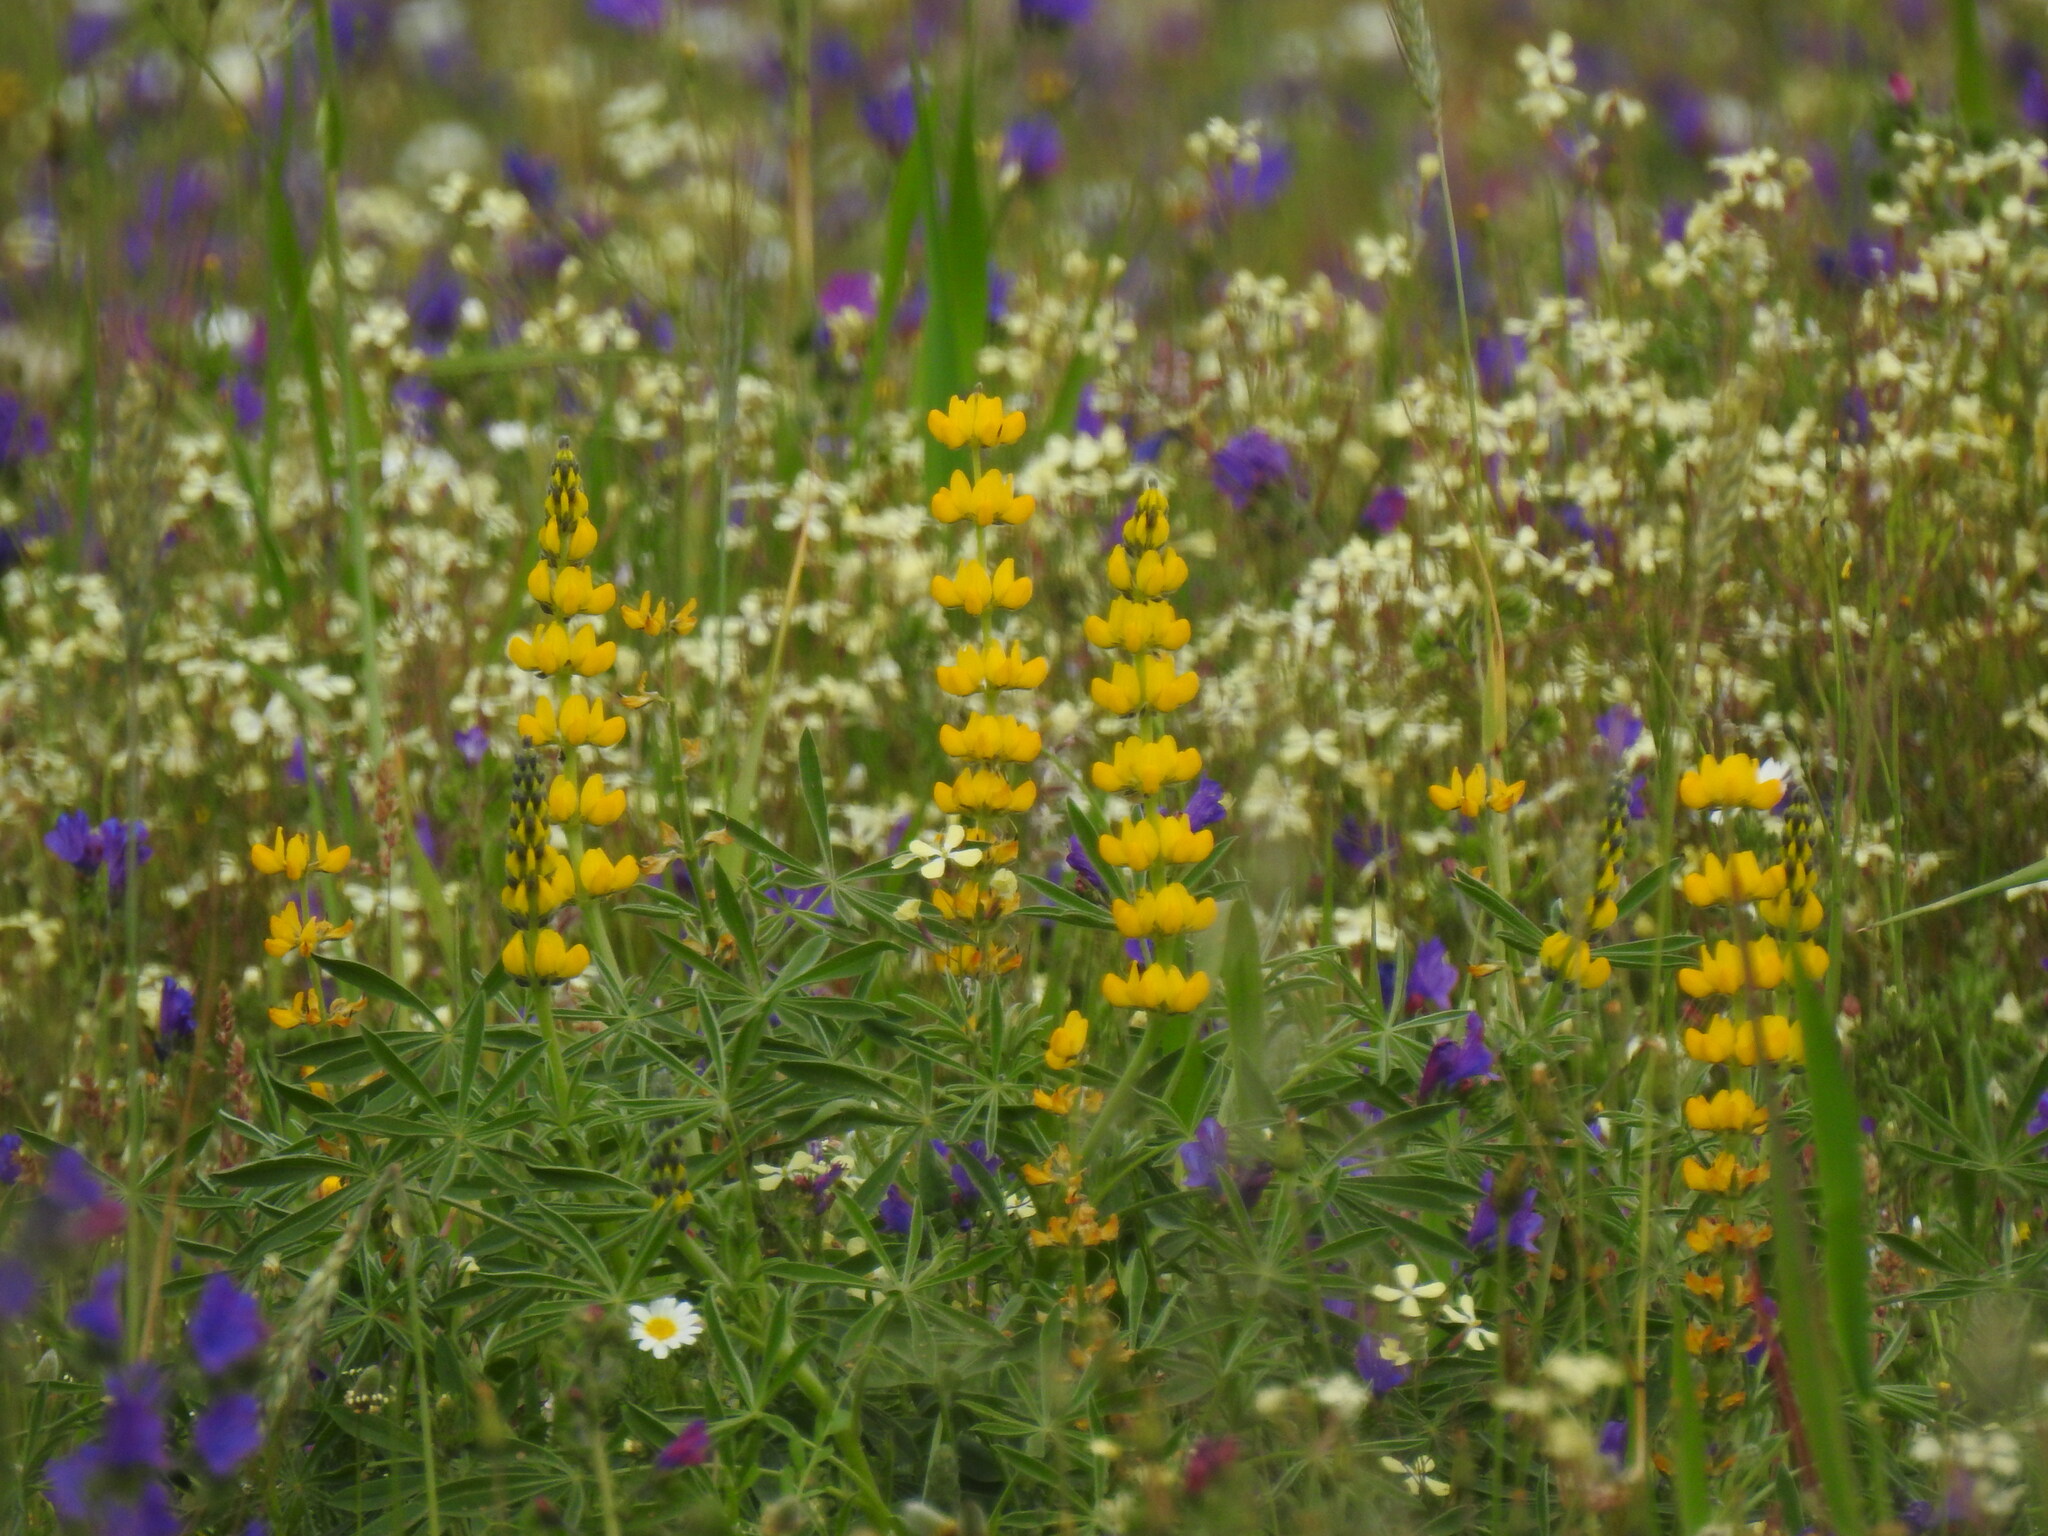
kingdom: Plantae
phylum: Tracheophyta
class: Magnoliopsida
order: Fabales
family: Fabaceae
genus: Lupinus
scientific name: Lupinus luteus
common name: European yellow lupine
